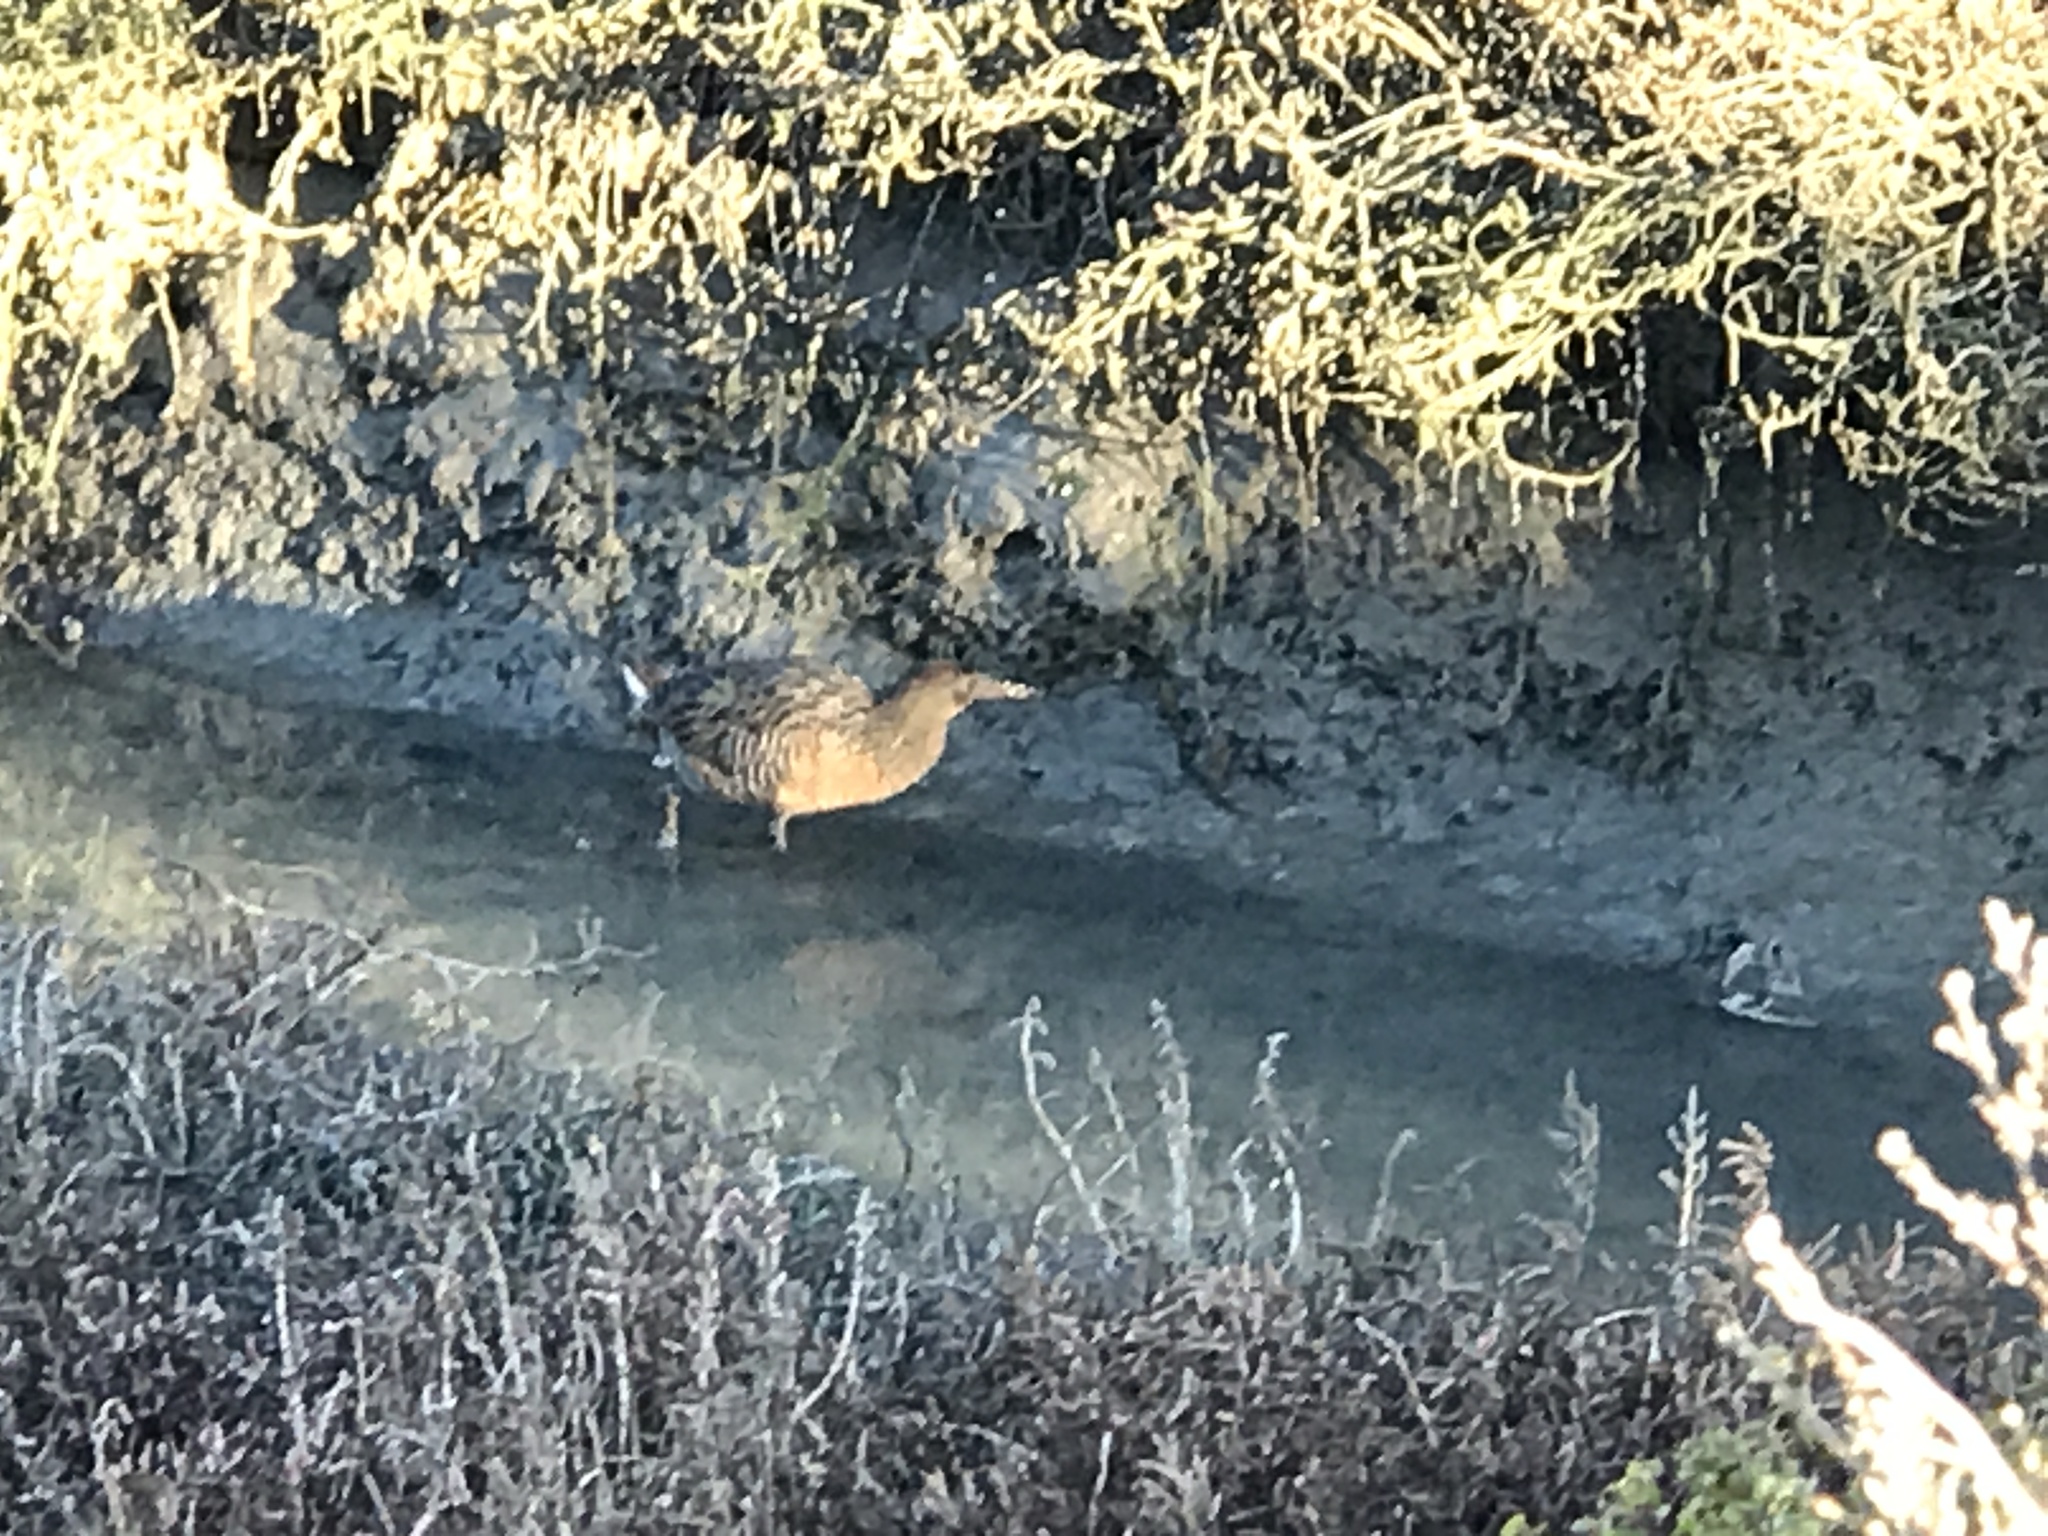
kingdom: Animalia
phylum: Chordata
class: Aves
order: Gruiformes
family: Rallidae
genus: Rallus
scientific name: Rallus obsoletus
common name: Ridgway's rail
